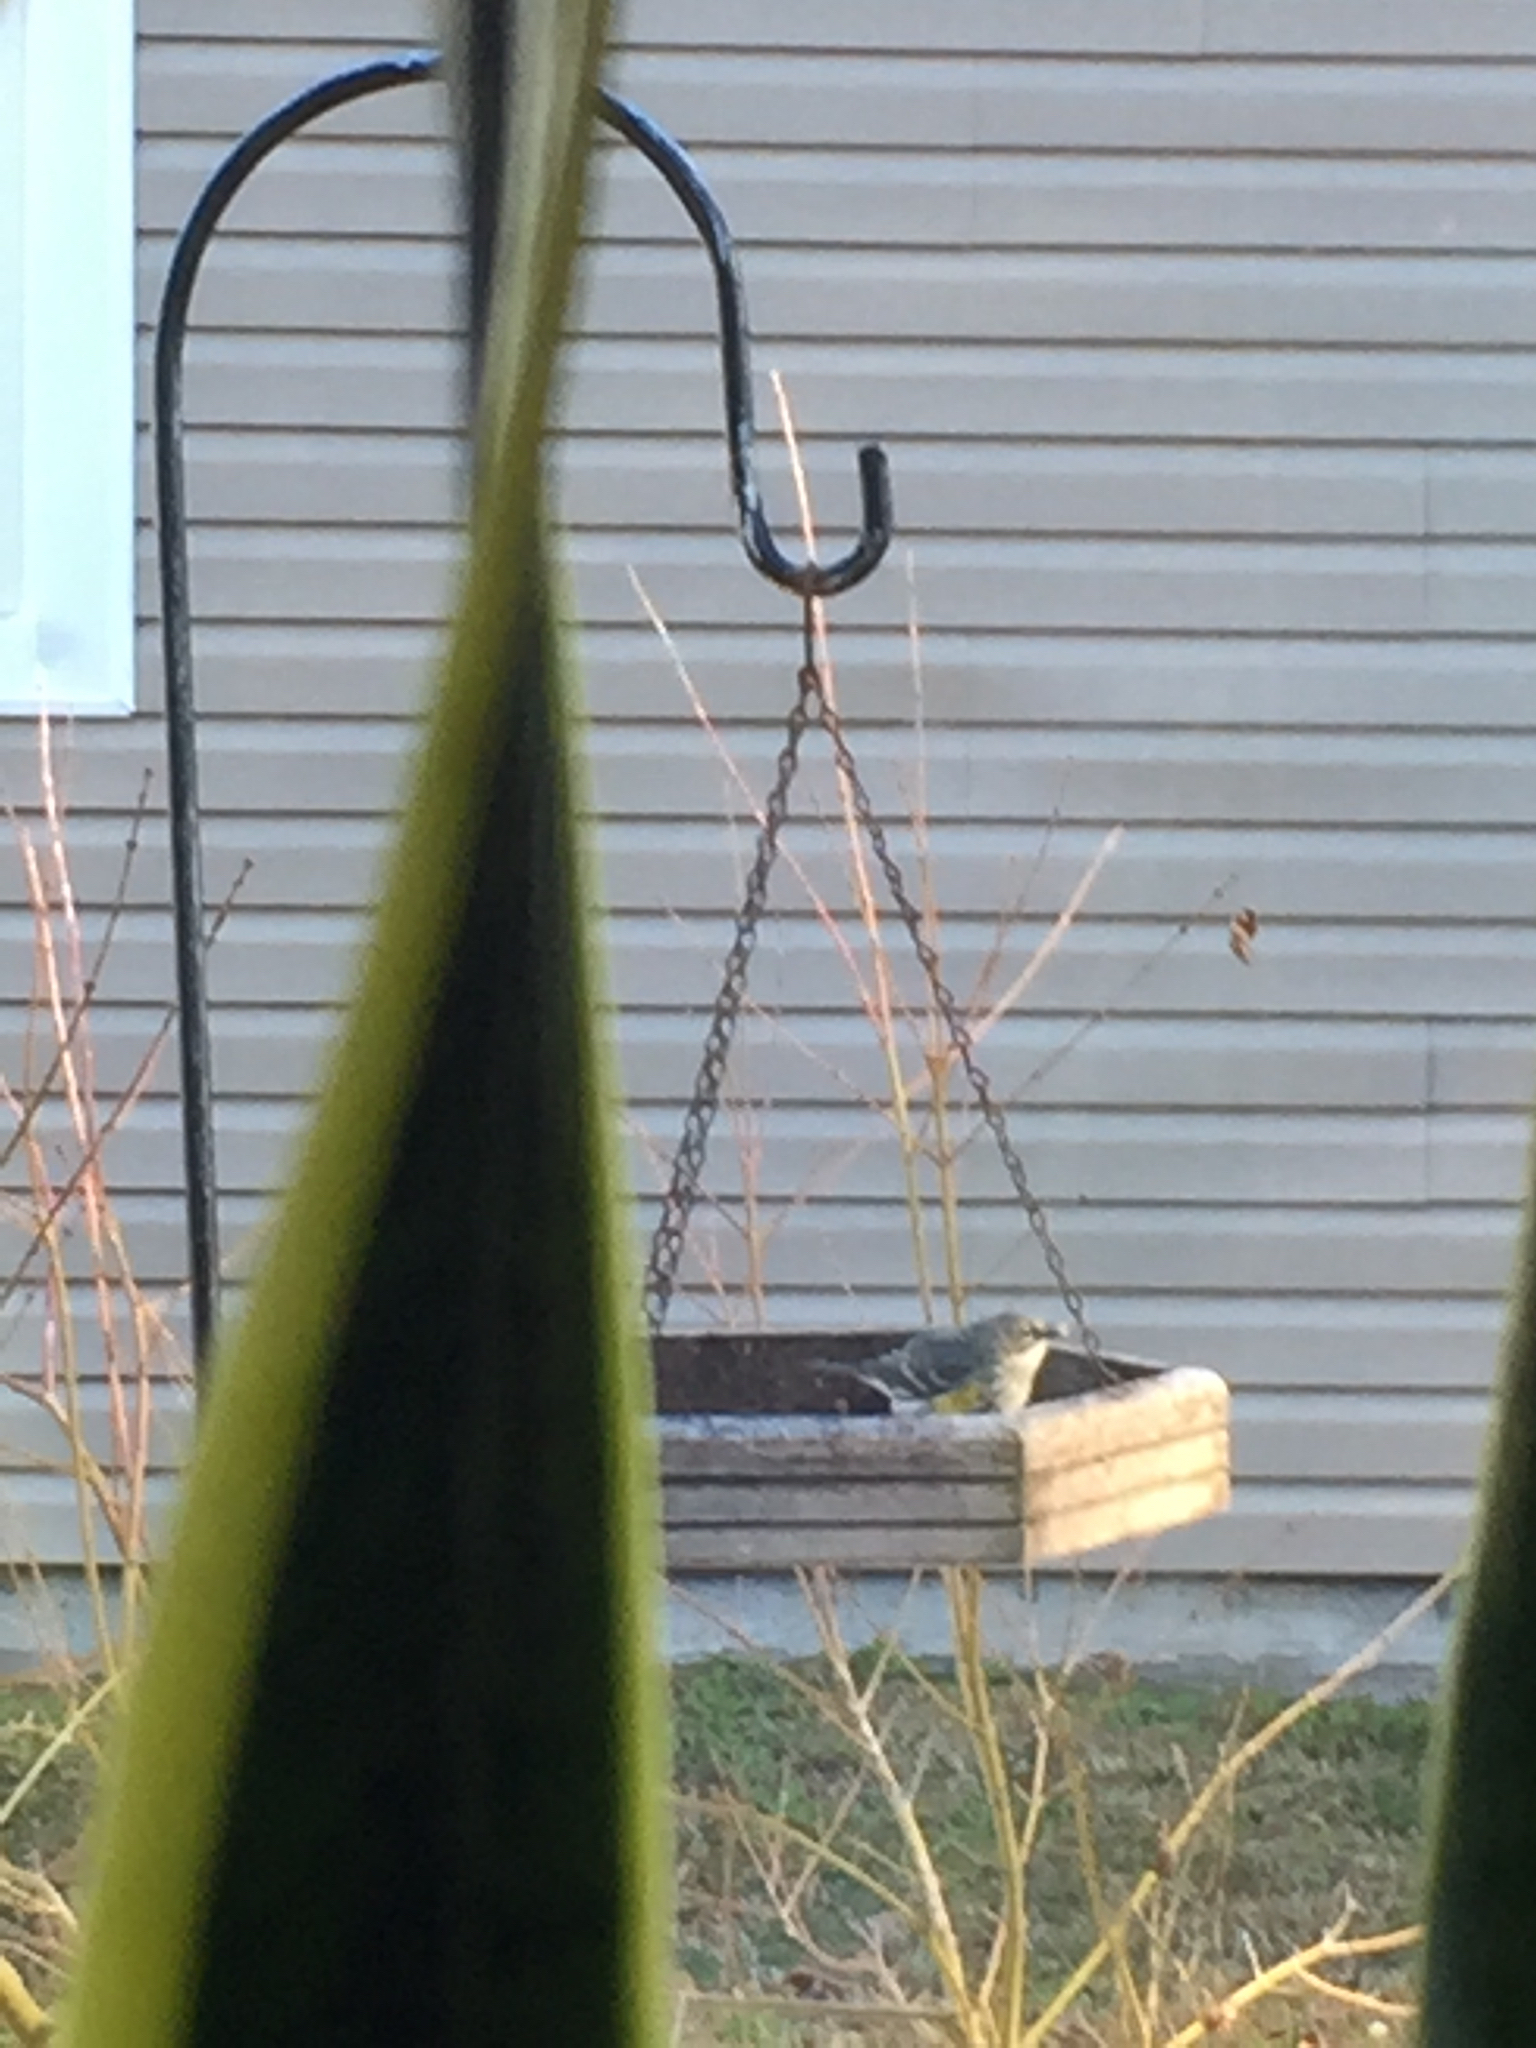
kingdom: Animalia
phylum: Chordata
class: Aves
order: Passeriformes
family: Parulidae
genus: Setophaga
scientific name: Setophaga coronata
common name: Myrtle warbler
